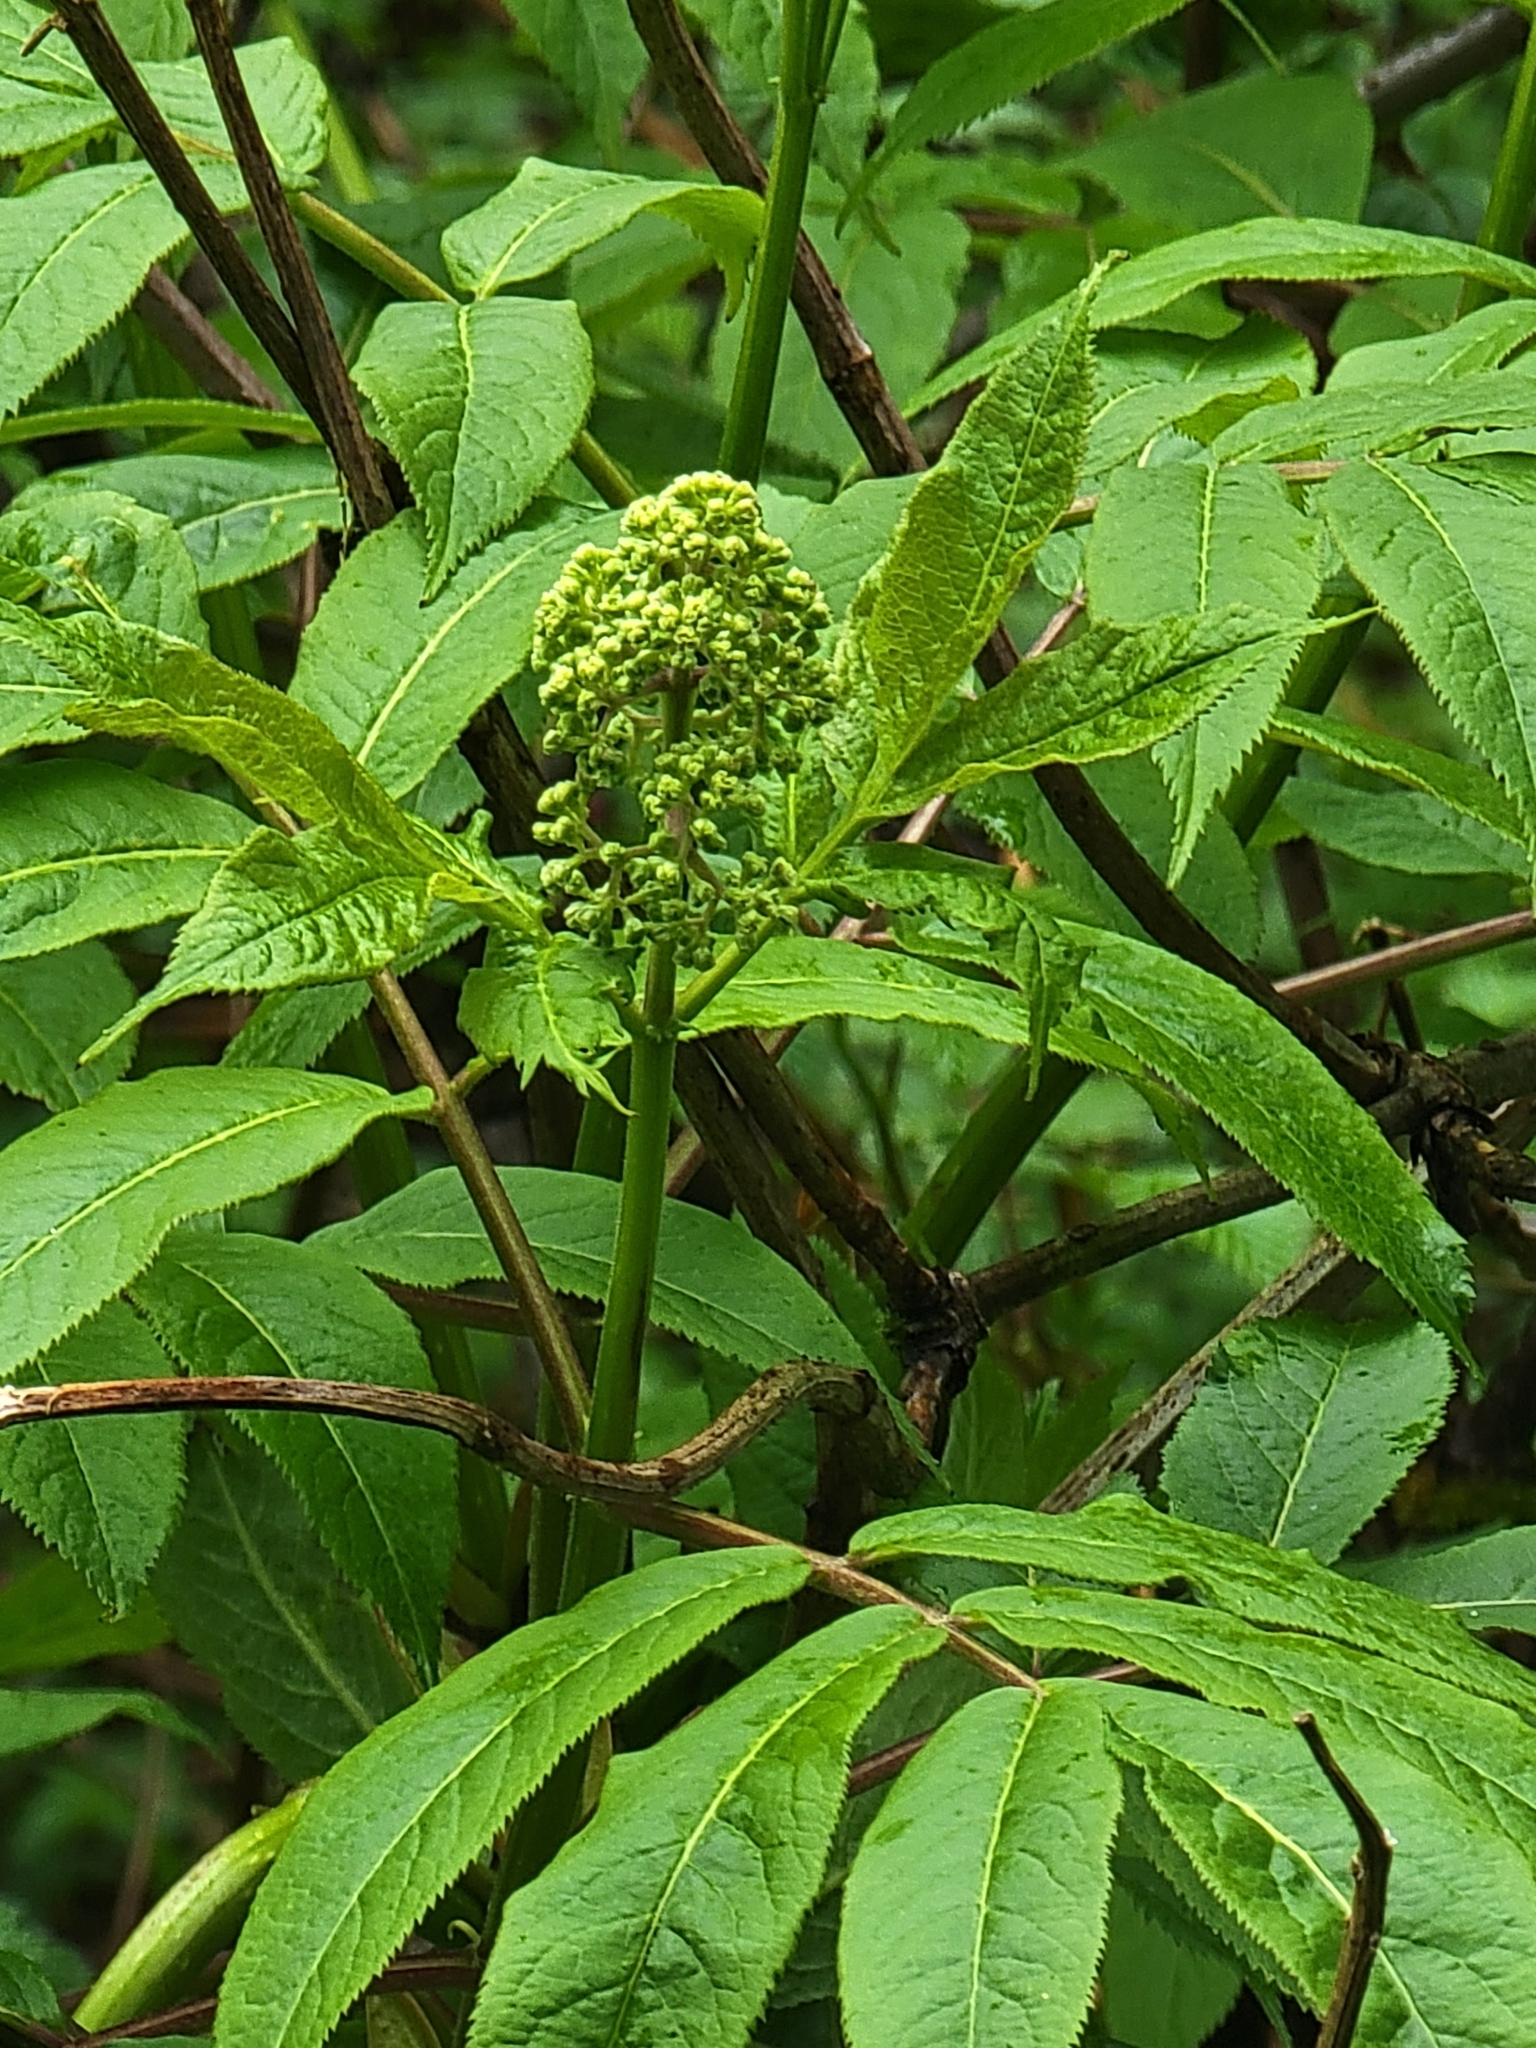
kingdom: Plantae
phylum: Tracheophyta
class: Magnoliopsida
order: Dipsacales
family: Viburnaceae
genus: Sambucus
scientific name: Sambucus racemosa
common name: Red-berried elder
